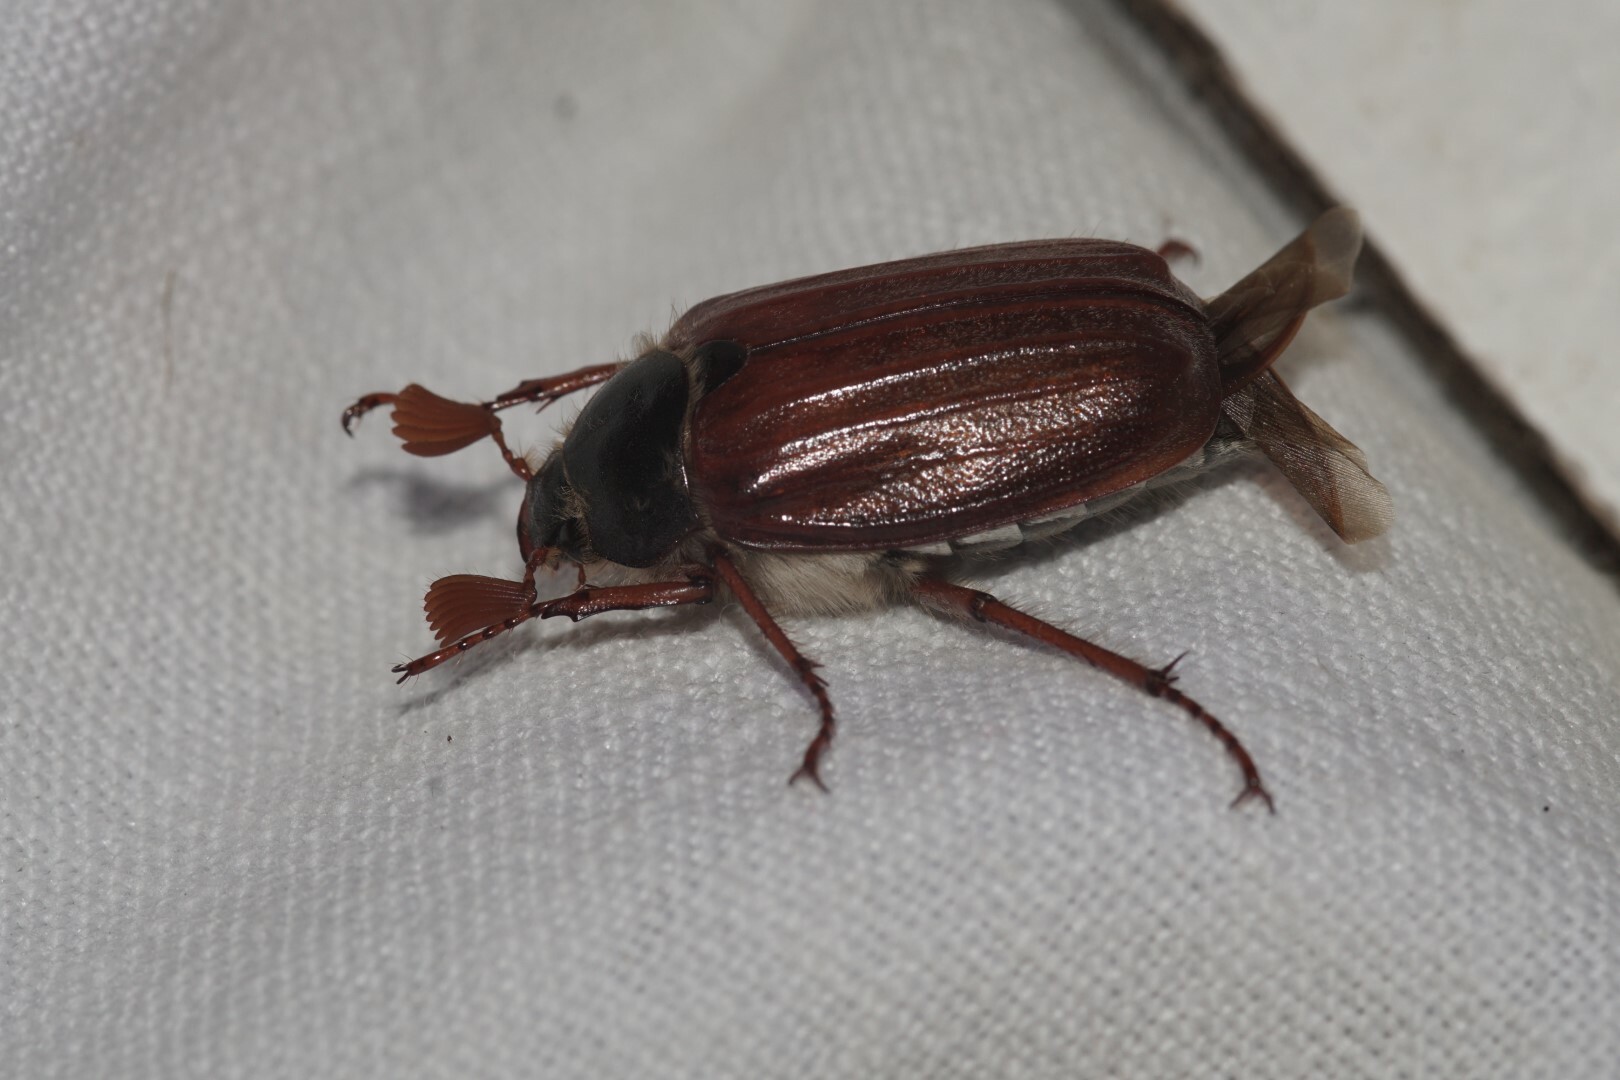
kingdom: Animalia
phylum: Arthropoda
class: Insecta
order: Coleoptera
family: Scarabaeidae
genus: Melolontha
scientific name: Melolontha melolontha
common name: Cockchafer maybeetle
